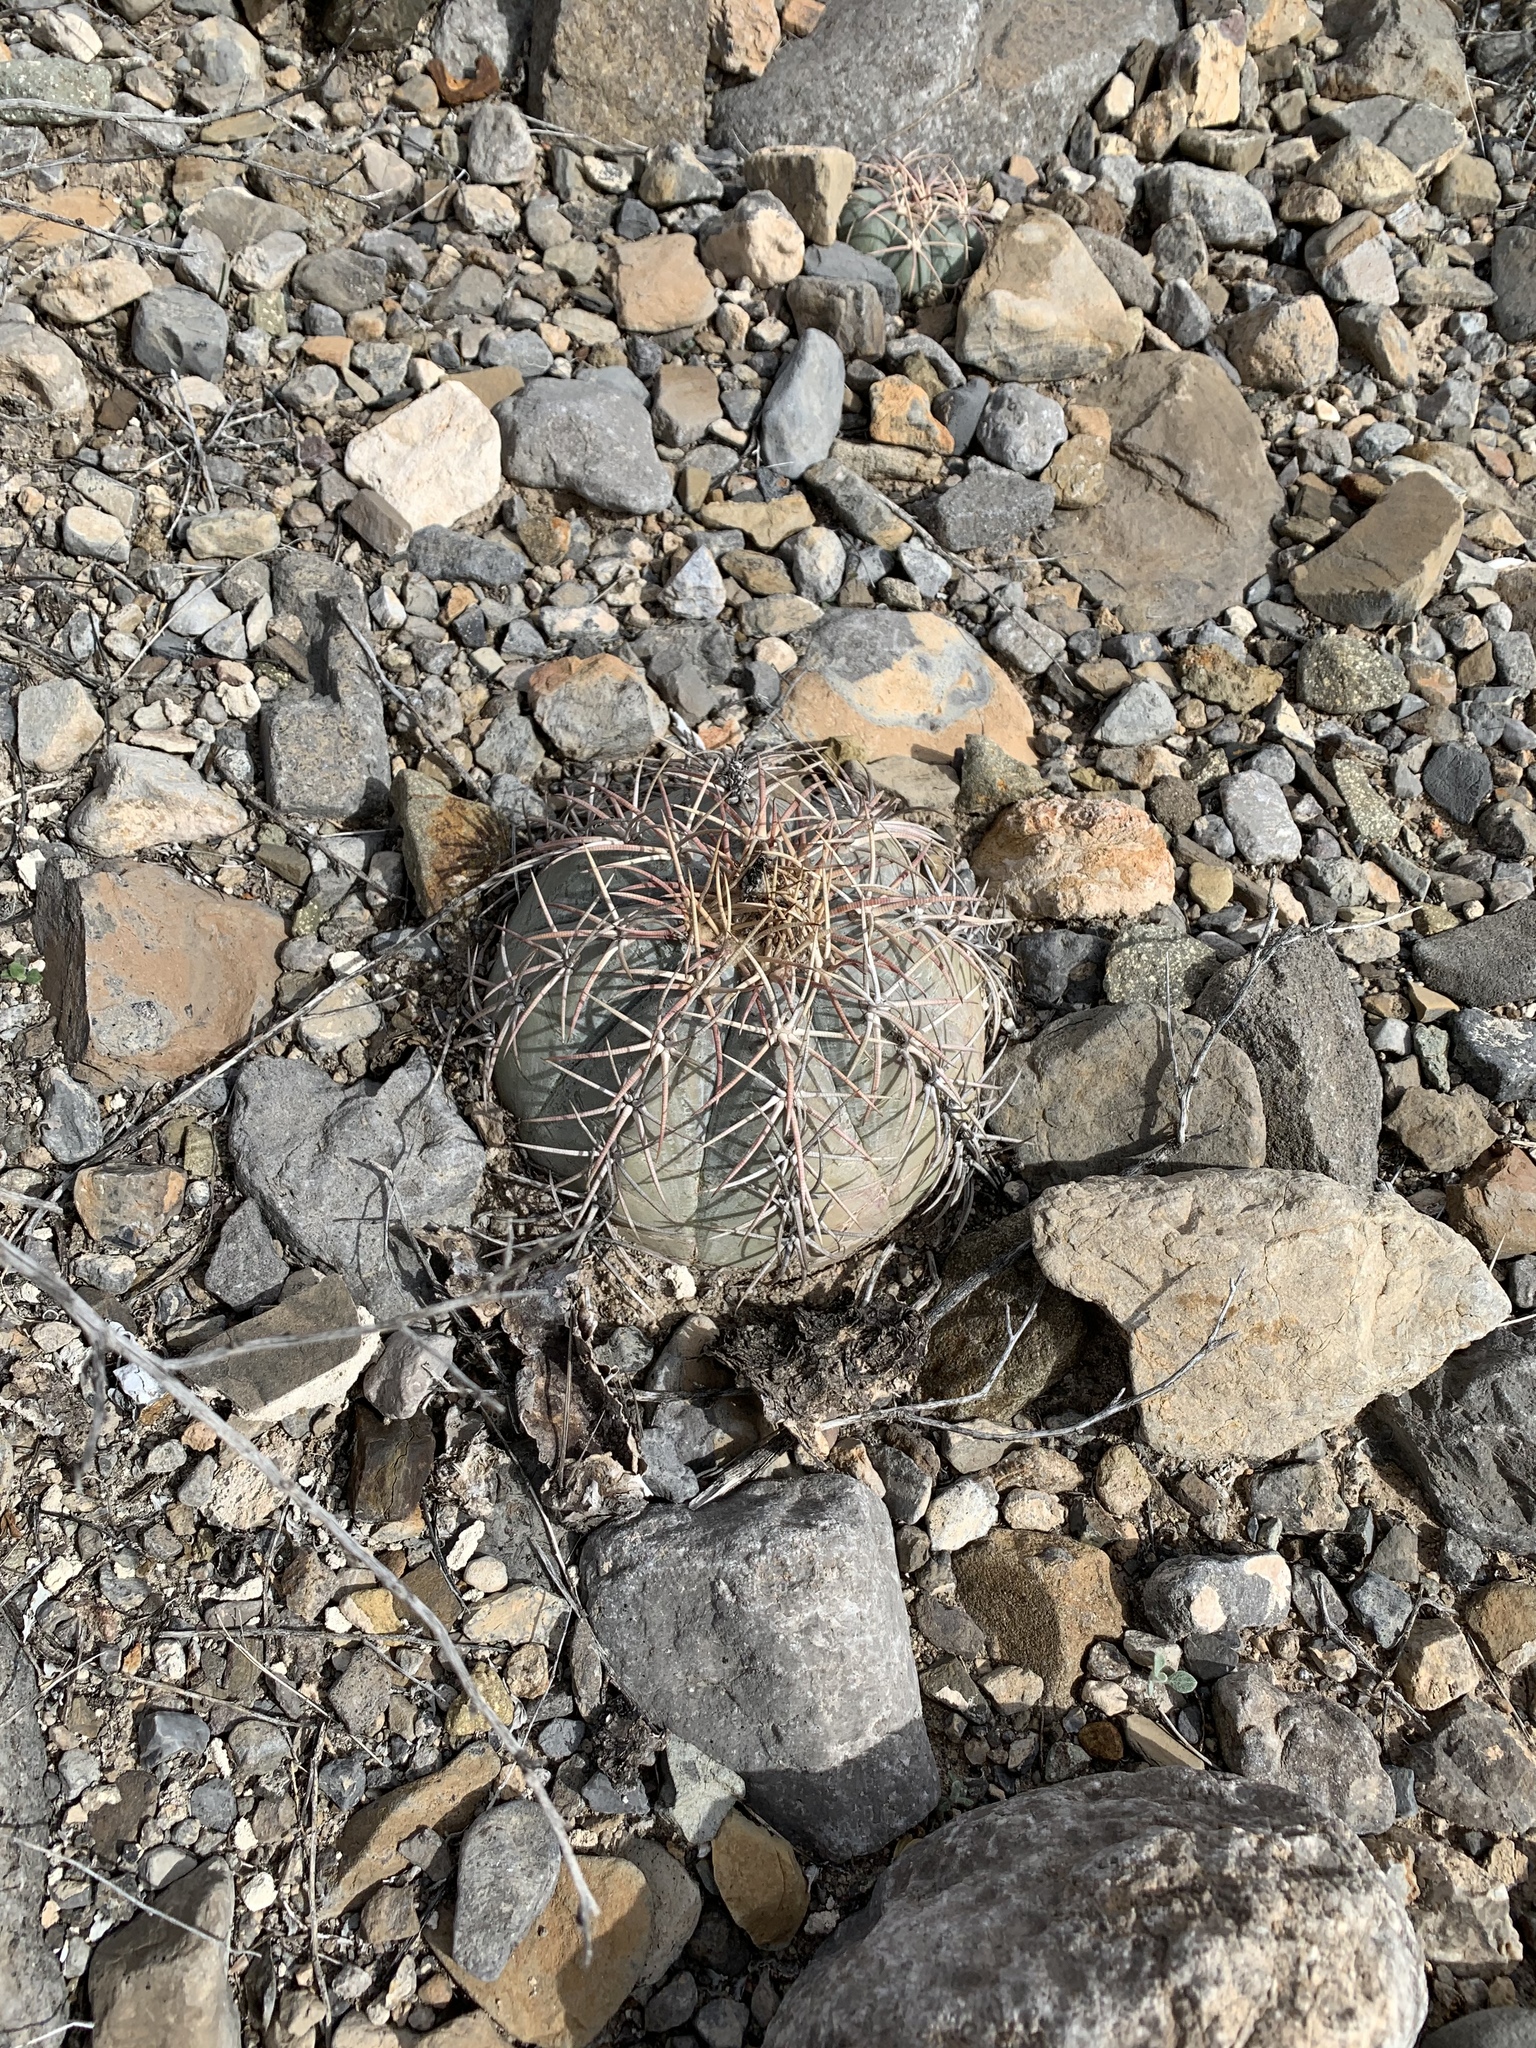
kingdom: Plantae
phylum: Tracheophyta
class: Magnoliopsida
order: Caryophyllales
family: Cactaceae
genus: Echinocactus
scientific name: Echinocactus horizonthalonius
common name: Devilshead
